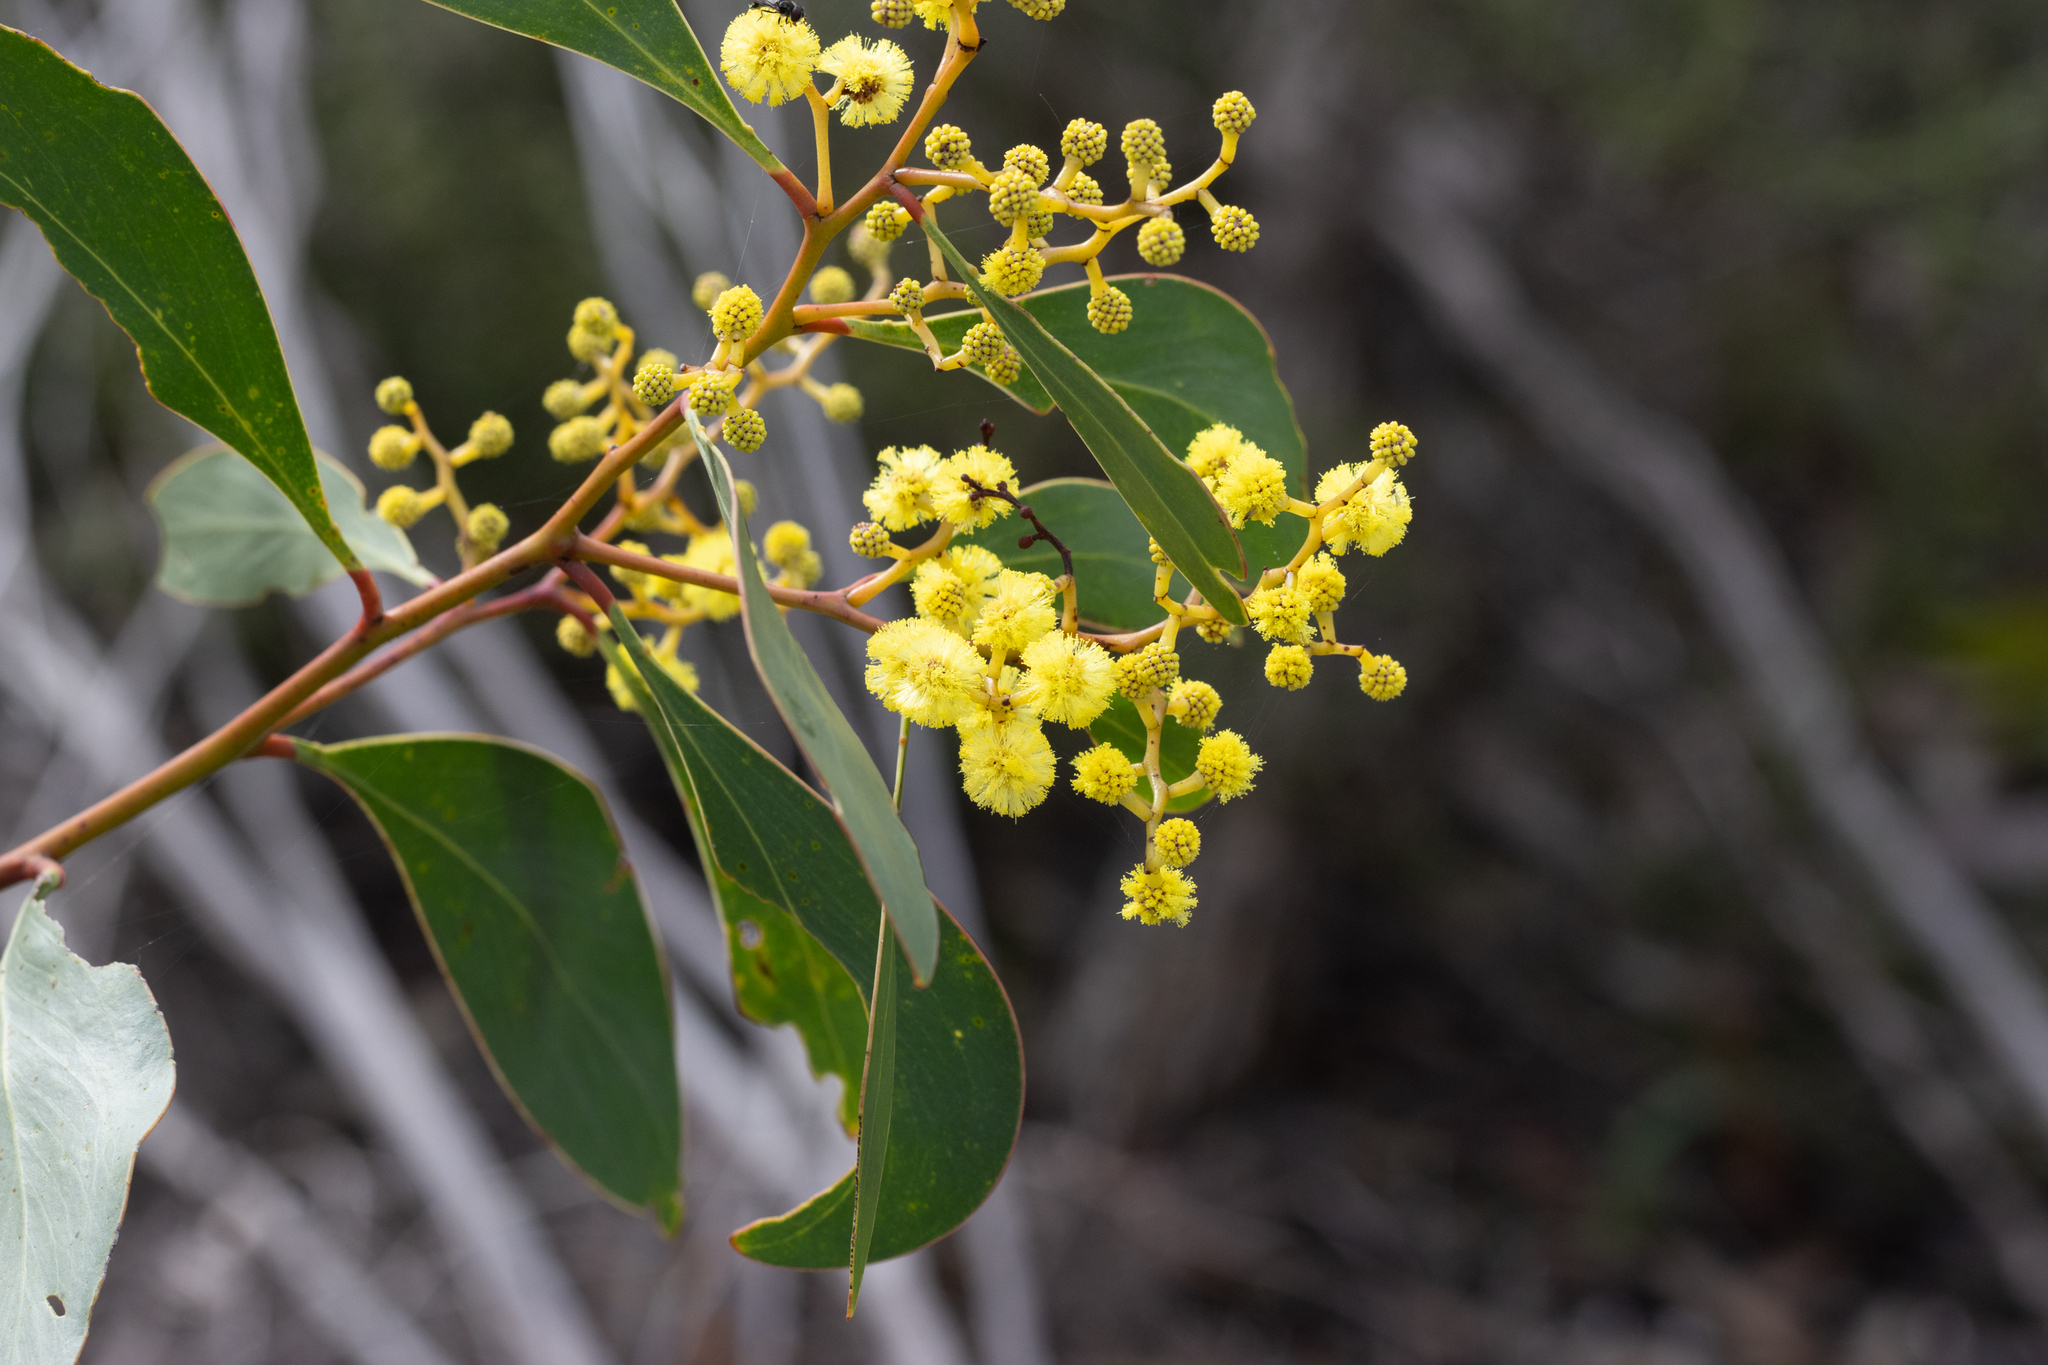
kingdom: Plantae
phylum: Tracheophyta
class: Magnoliopsida
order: Fabales
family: Fabaceae
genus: Acacia
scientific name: Acacia pycnantha
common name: Golden wattle
